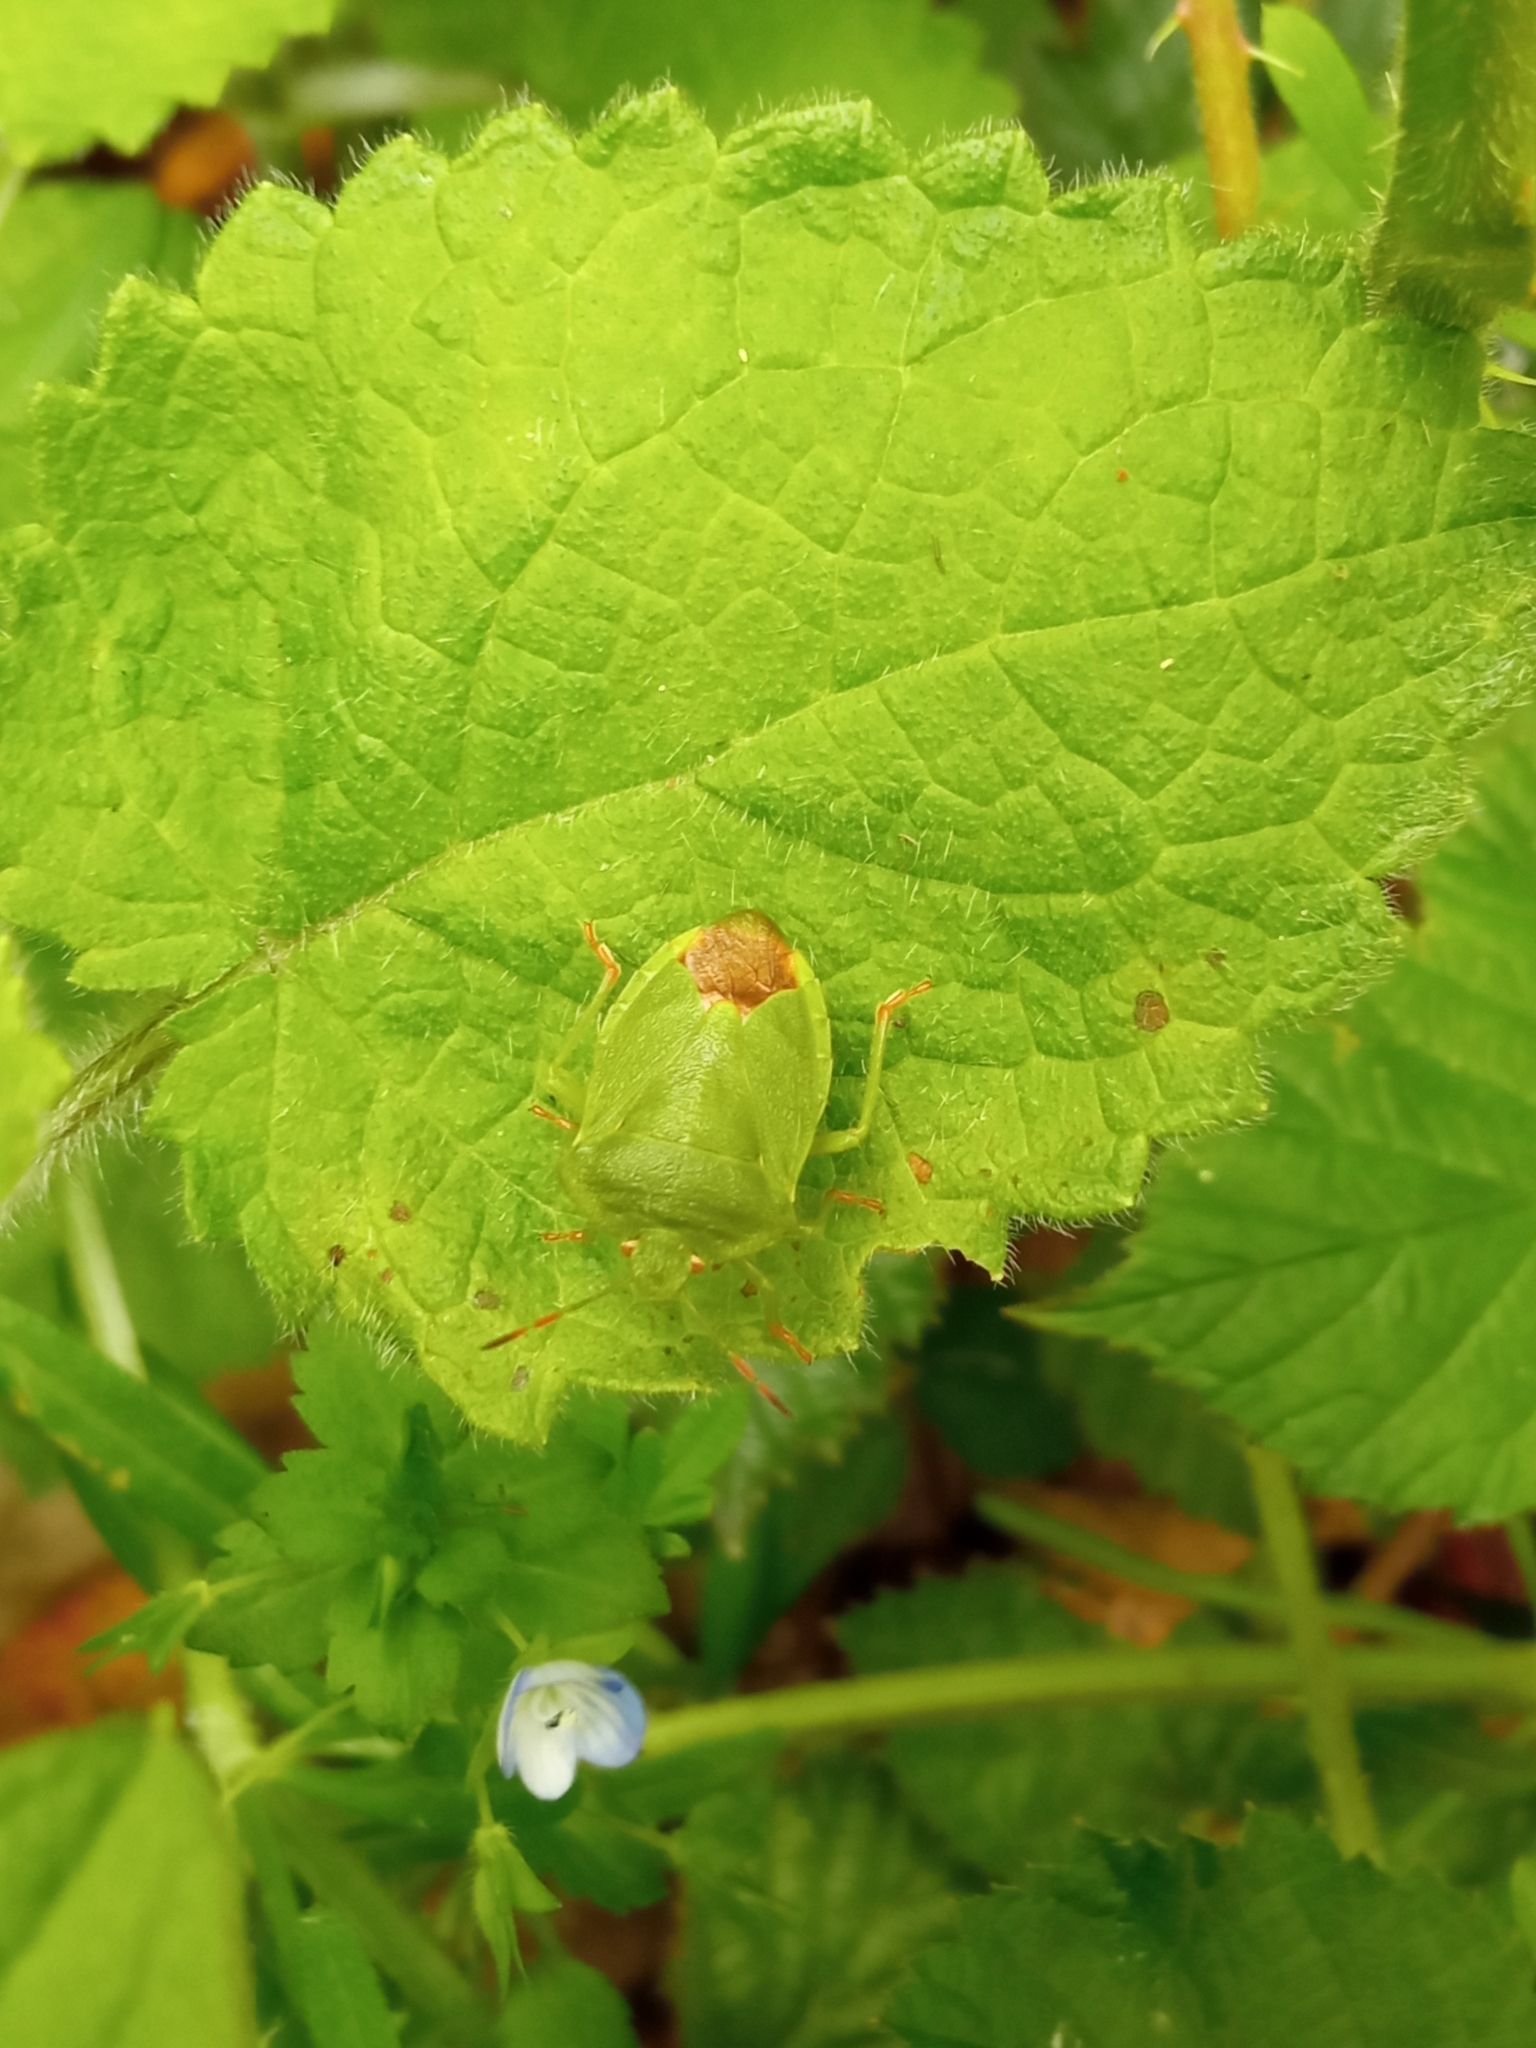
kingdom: Animalia
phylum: Arthropoda
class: Insecta
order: Hemiptera
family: Pentatomidae
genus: Palomena
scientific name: Palomena prasina
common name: Green shieldbug
